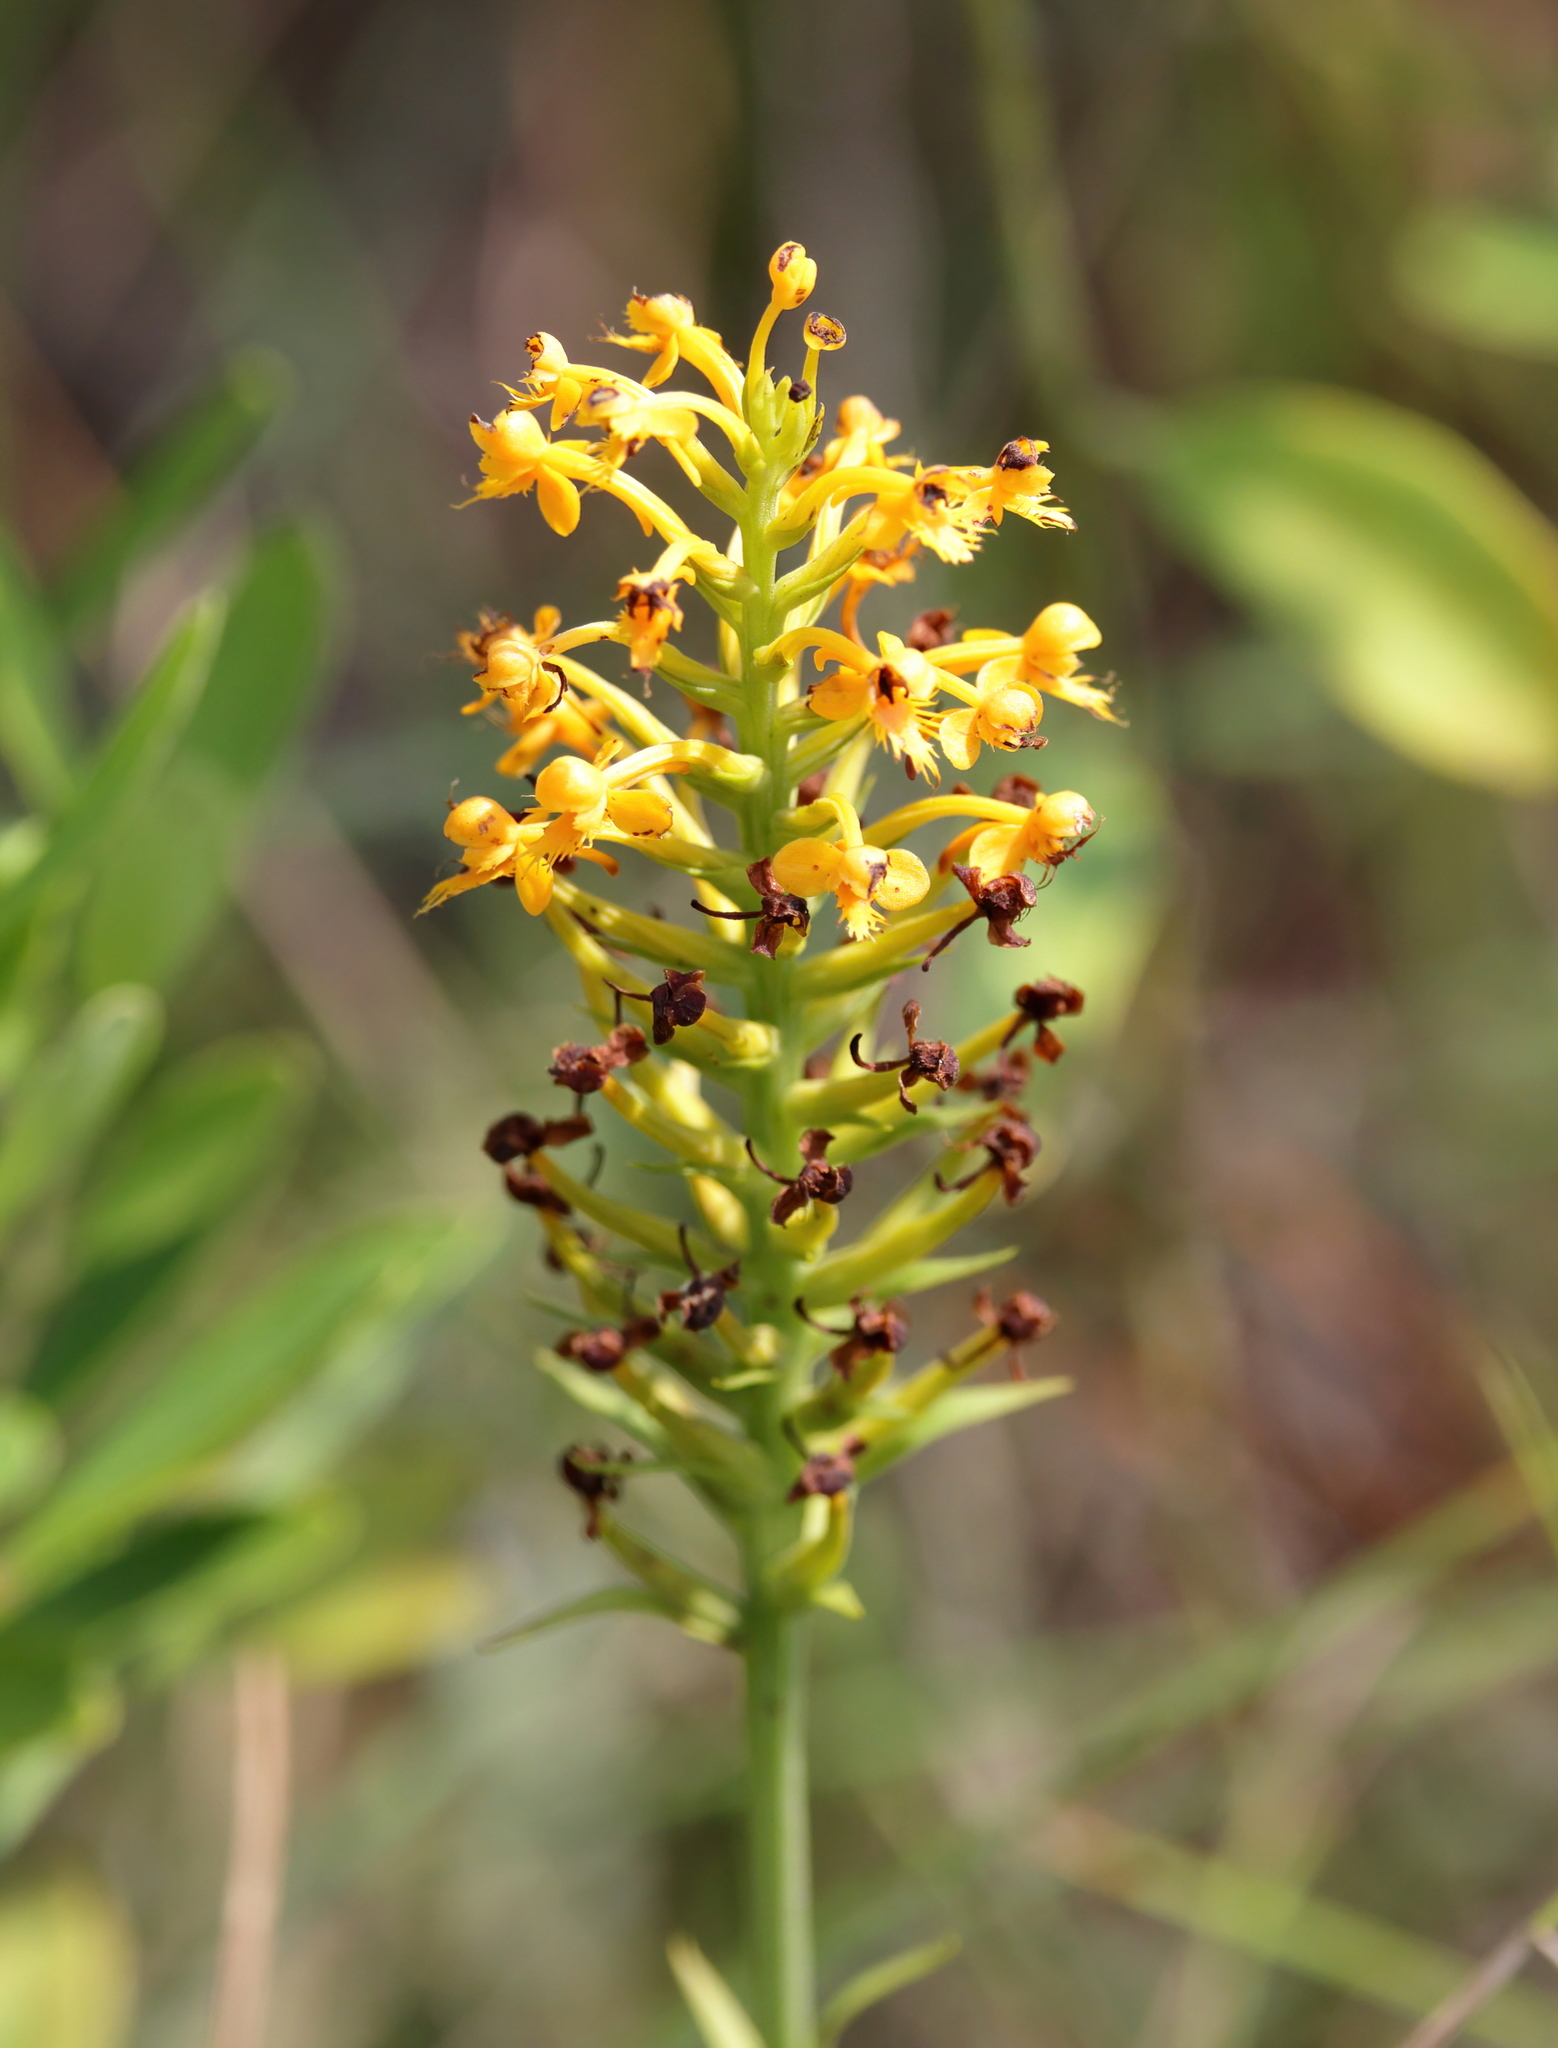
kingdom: Plantae
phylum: Tracheophyta
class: Liliopsida
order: Asparagales
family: Orchidaceae
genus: Platanthera
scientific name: Platanthera cristata
